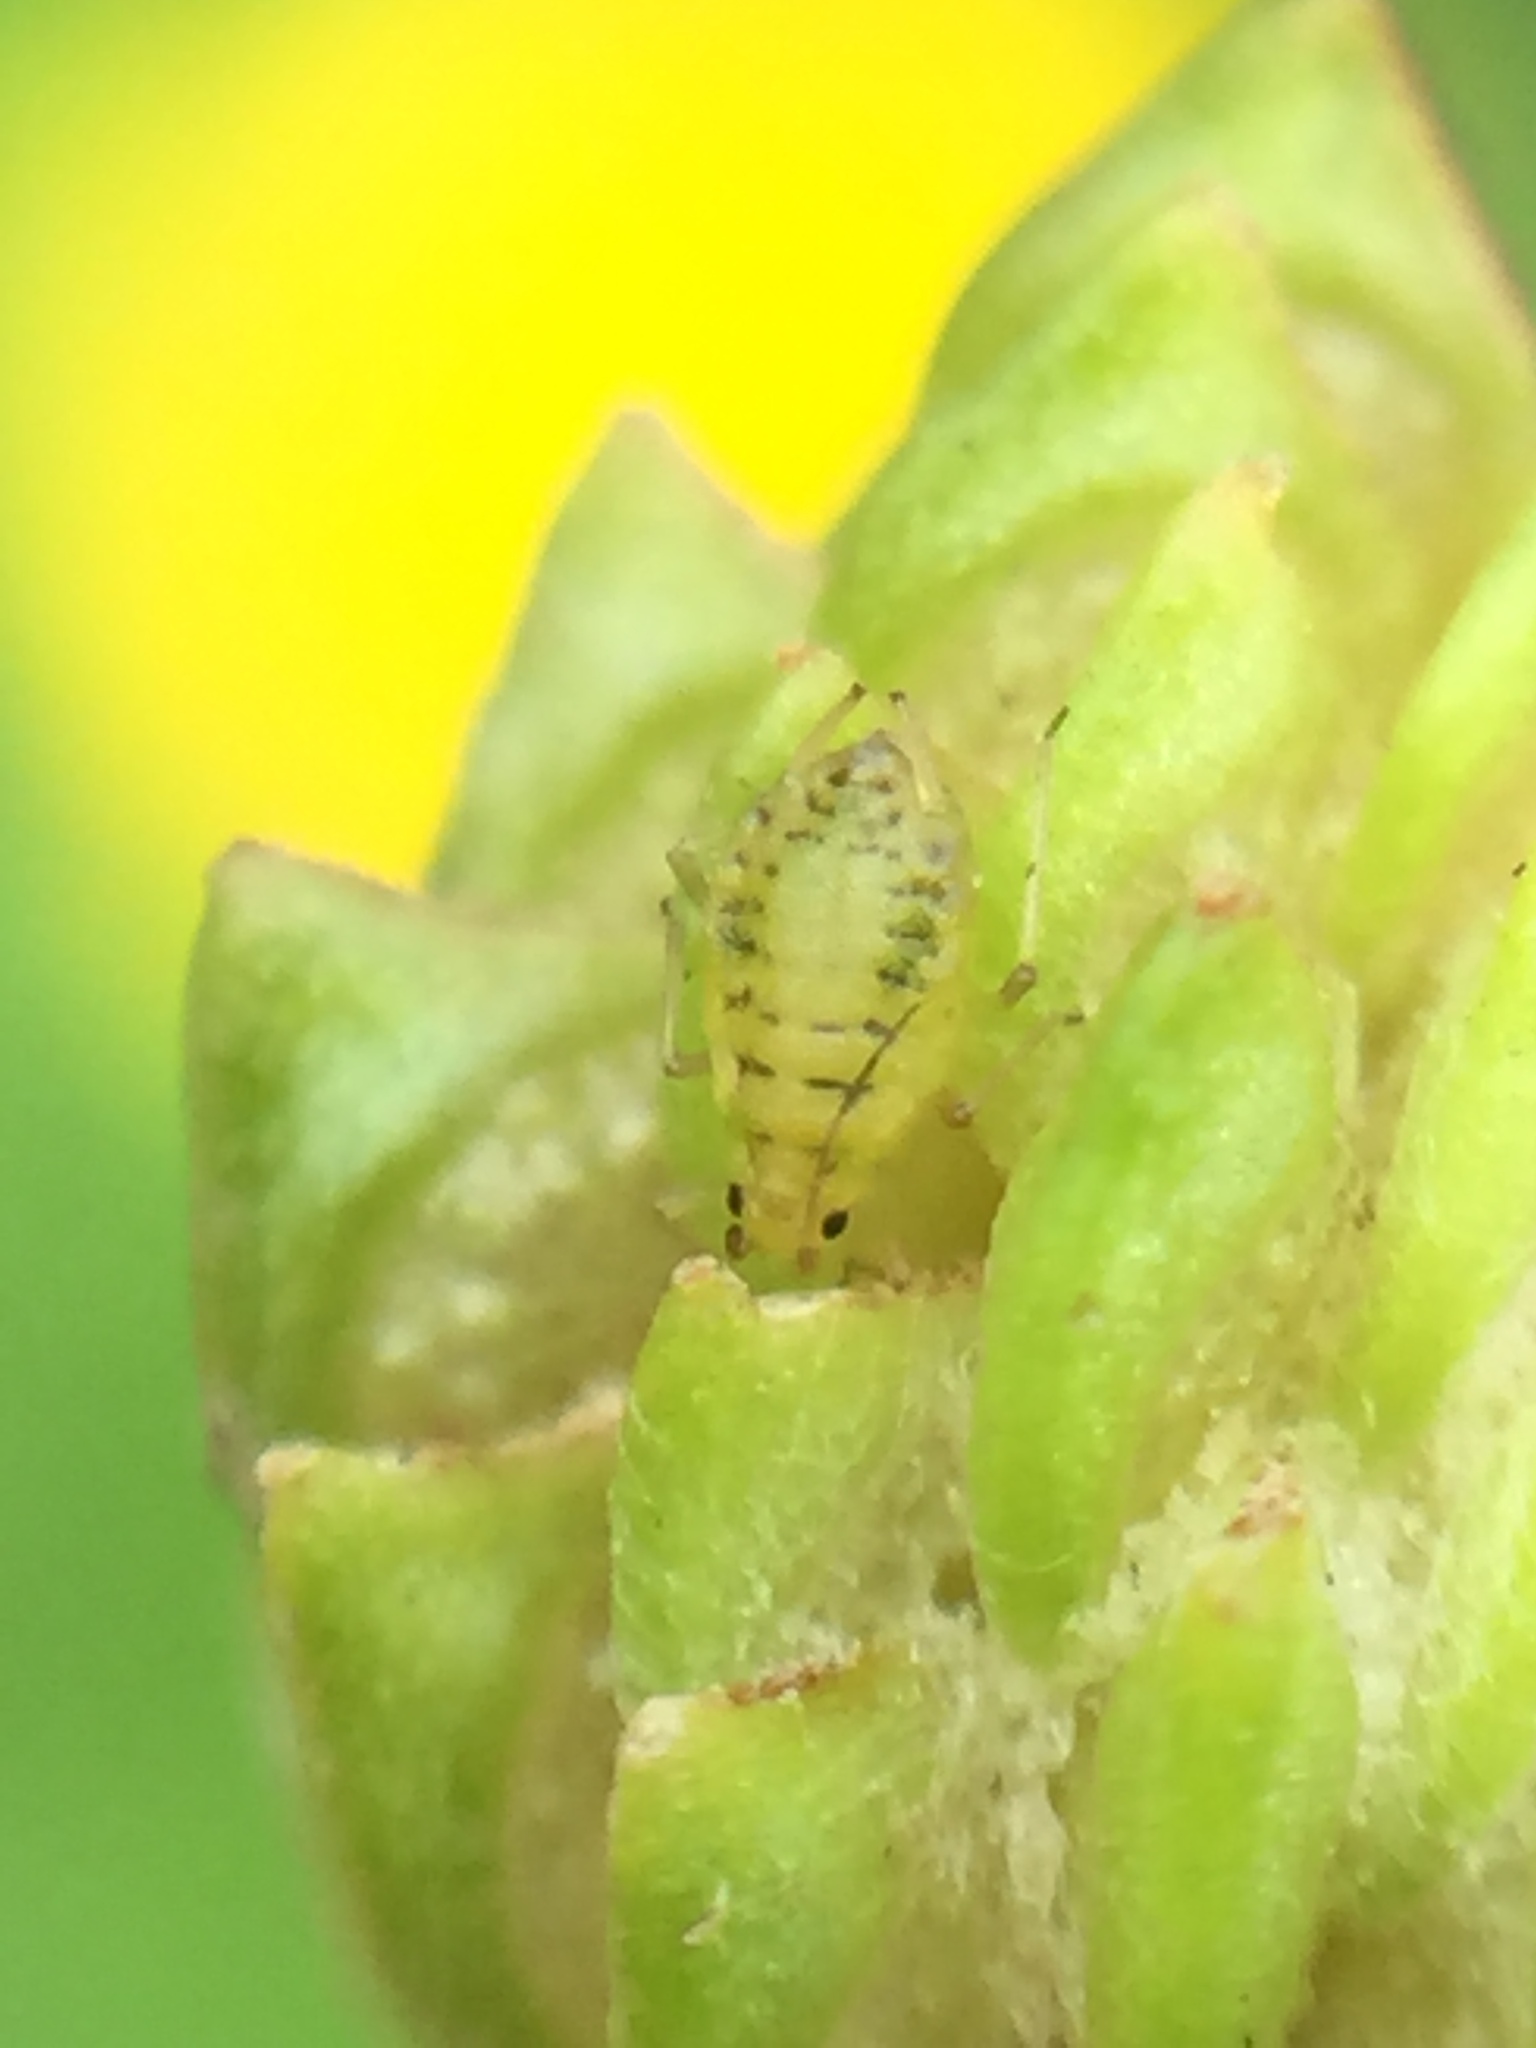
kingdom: Animalia
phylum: Arthropoda
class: Insecta
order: Hemiptera
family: Aphididae
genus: Myzus
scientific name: Myzus ornatus
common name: Ornate aphid
